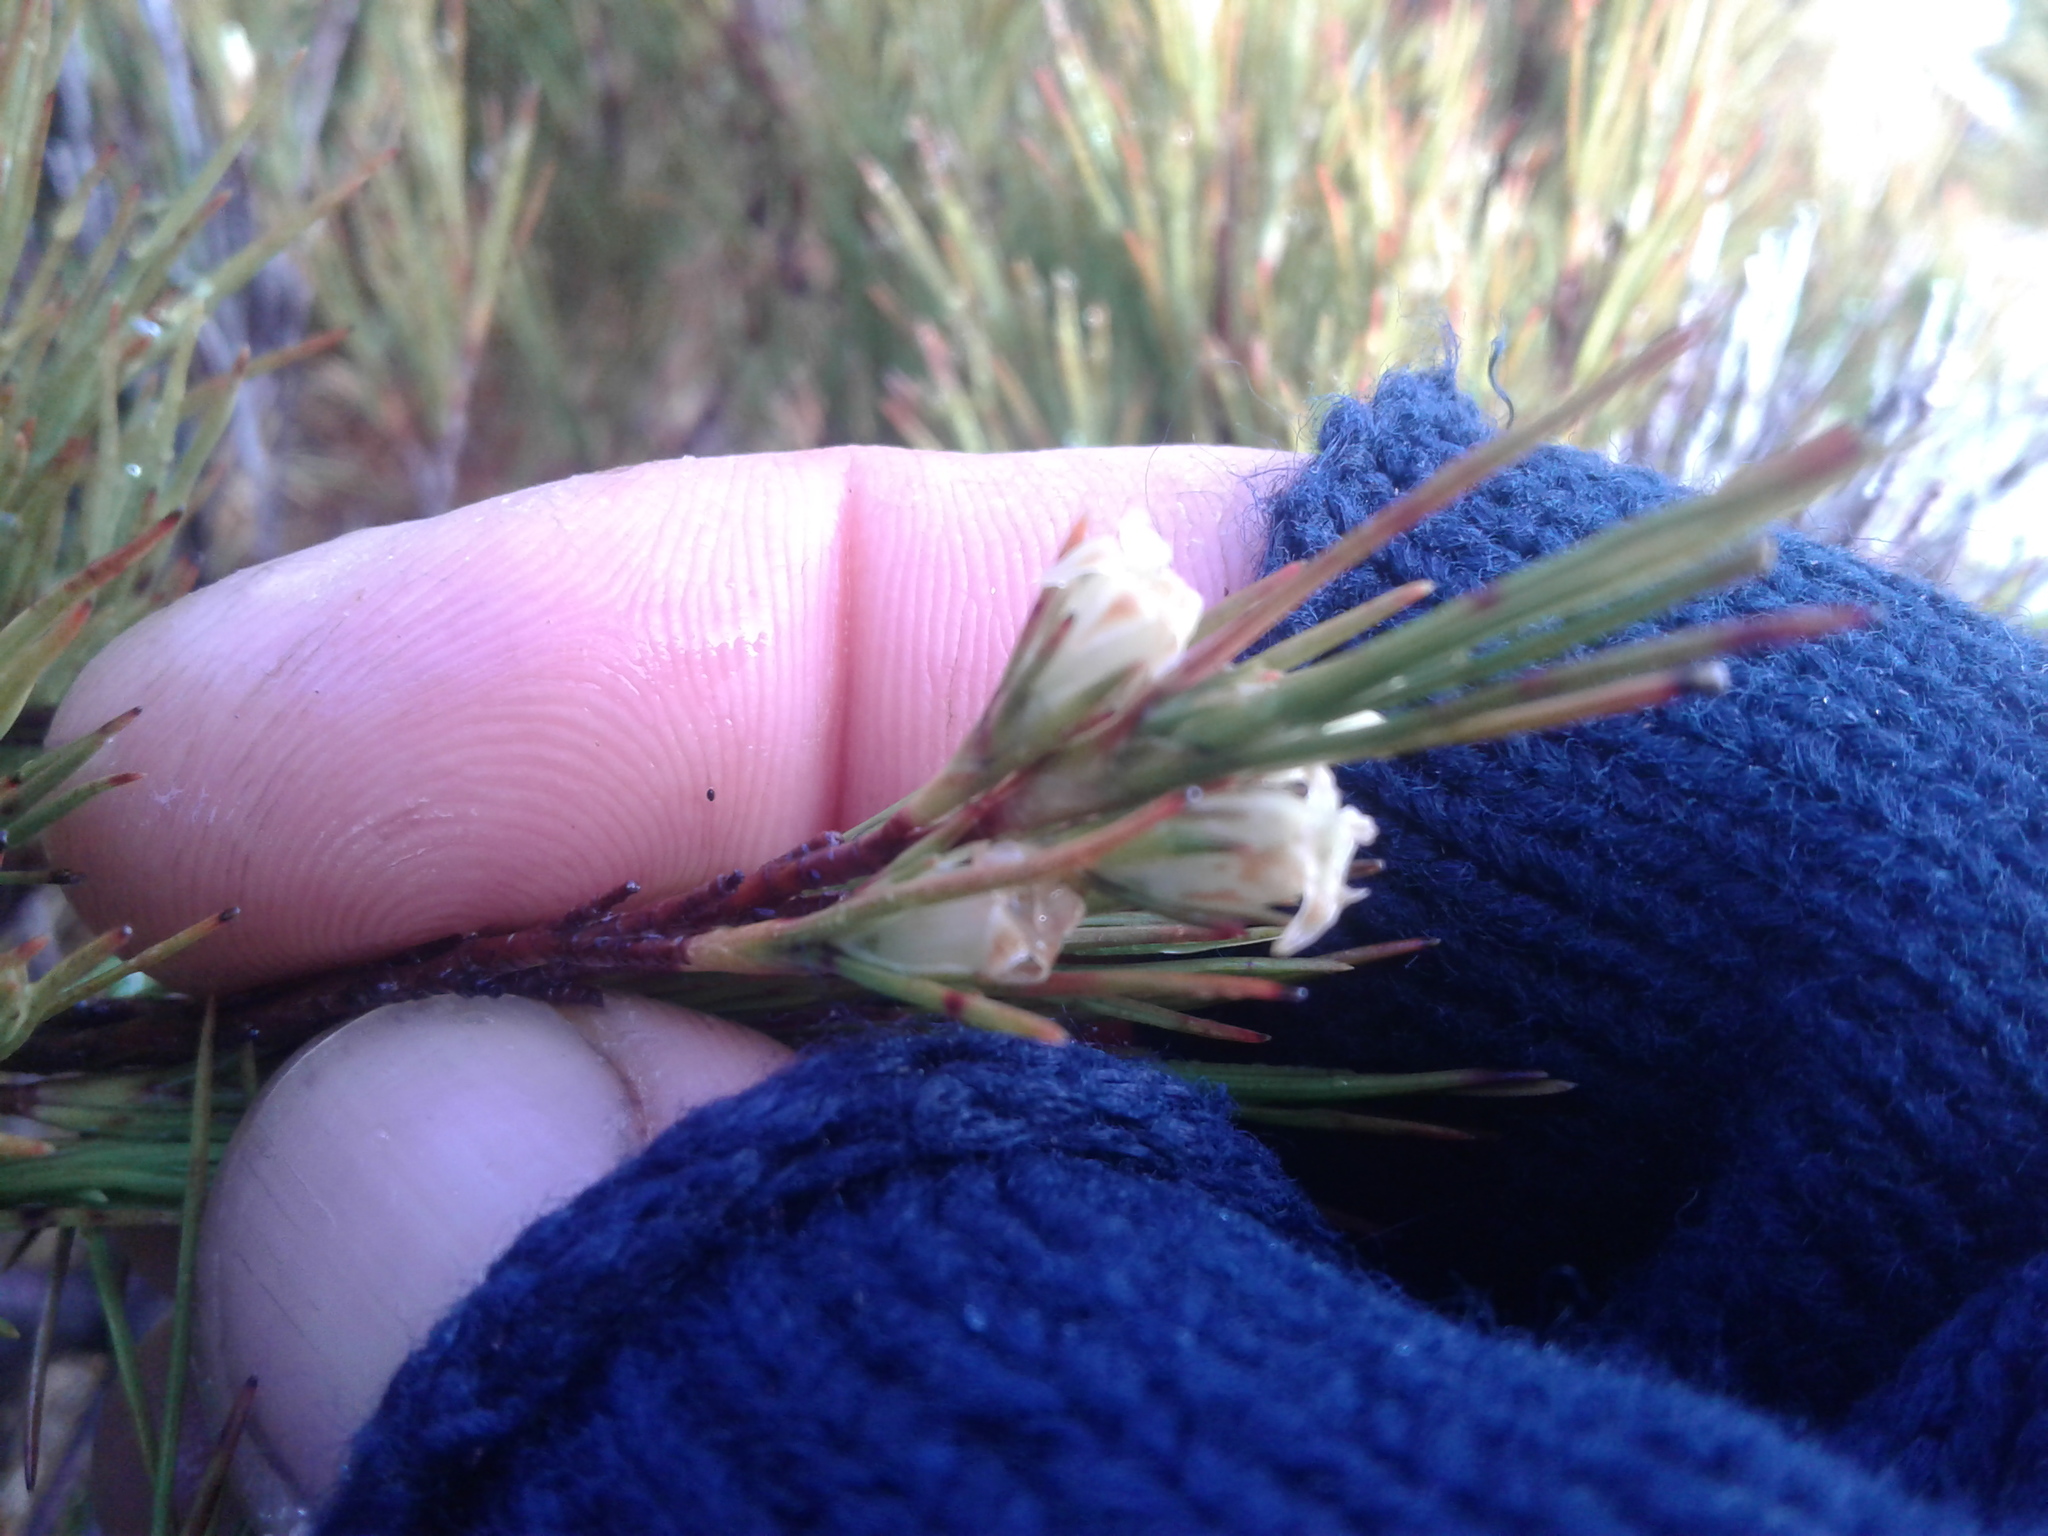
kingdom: Plantae
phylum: Tracheophyta
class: Magnoliopsida
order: Ericales
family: Ericaceae
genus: Dracophyllum
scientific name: Dracophyllum longifolium
